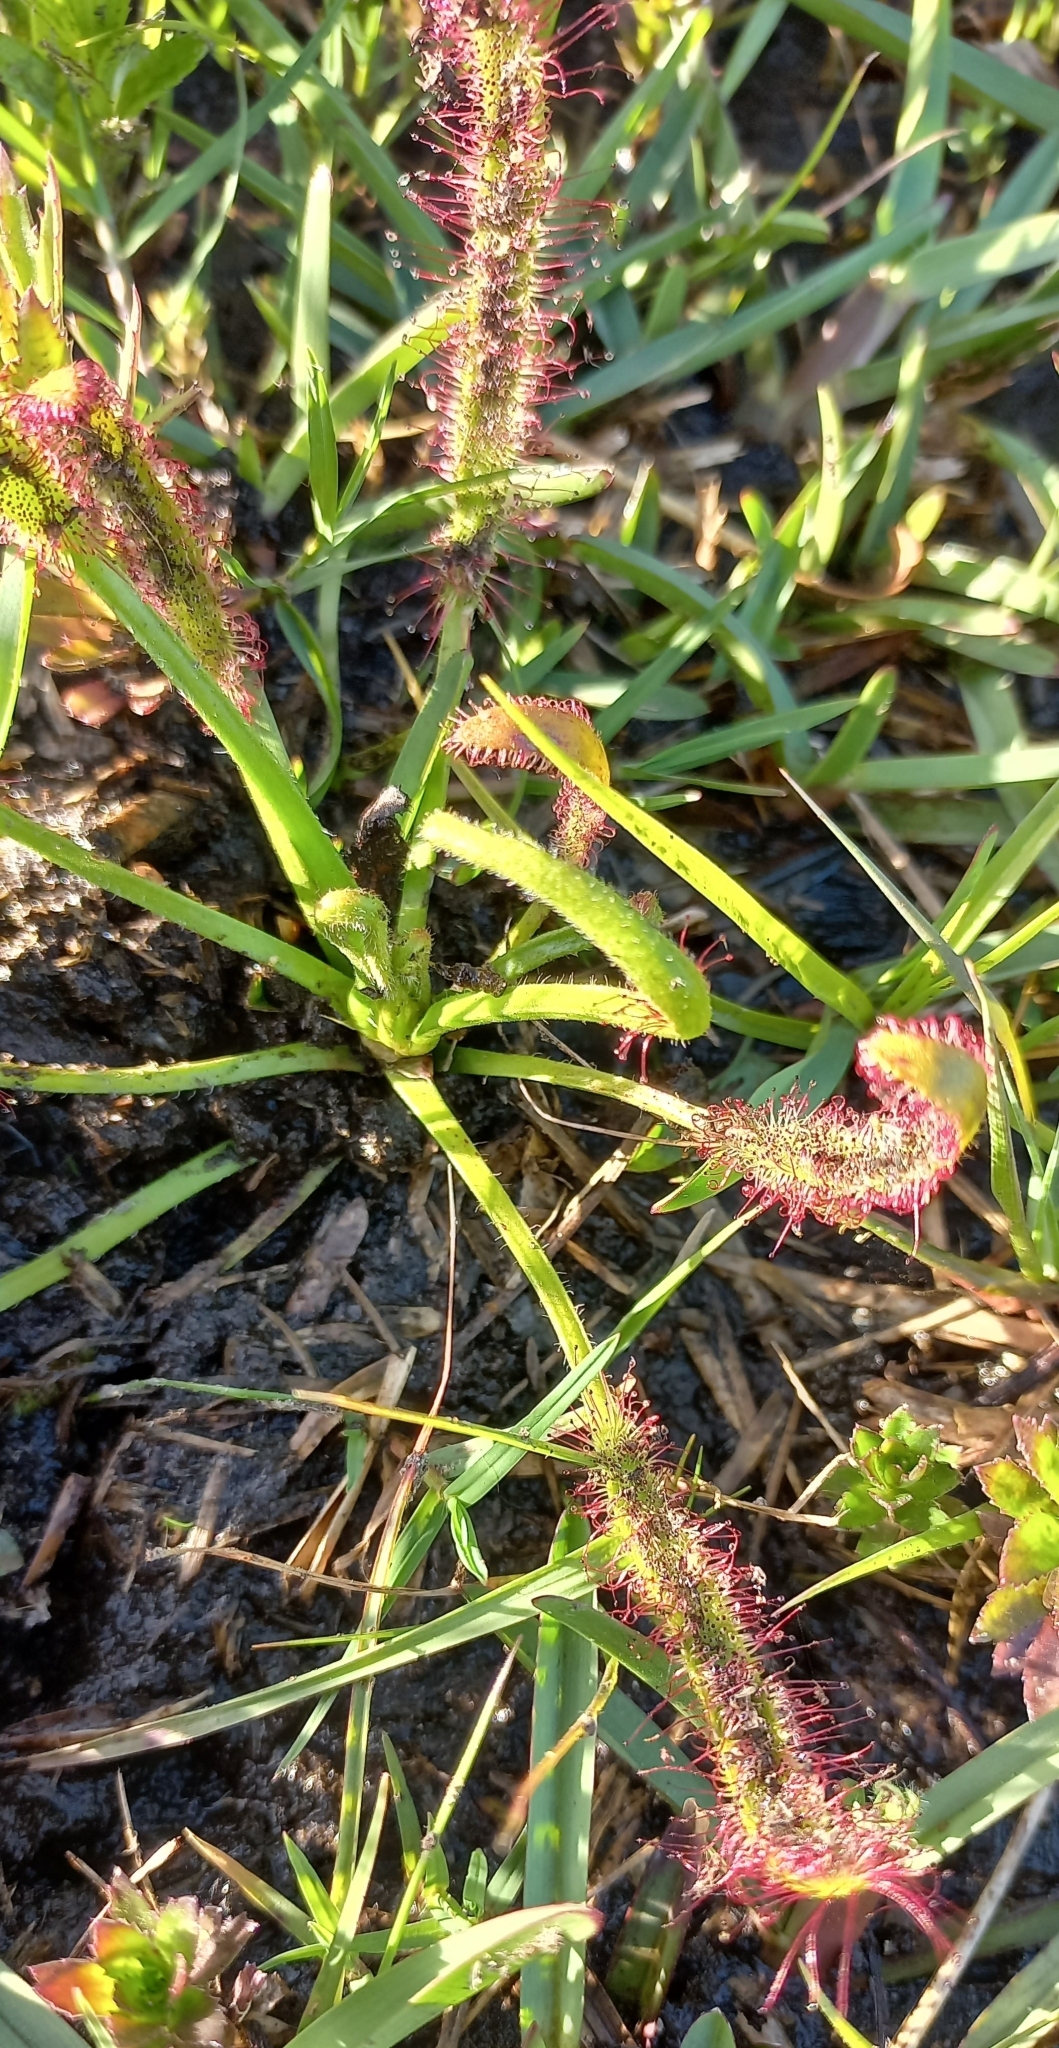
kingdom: Plantae
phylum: Tracheophyta
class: Magnoliopsida
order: Caryophyllales
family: Droseraceae
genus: Drosera
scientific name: Drosera capensis
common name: Cape sundew
